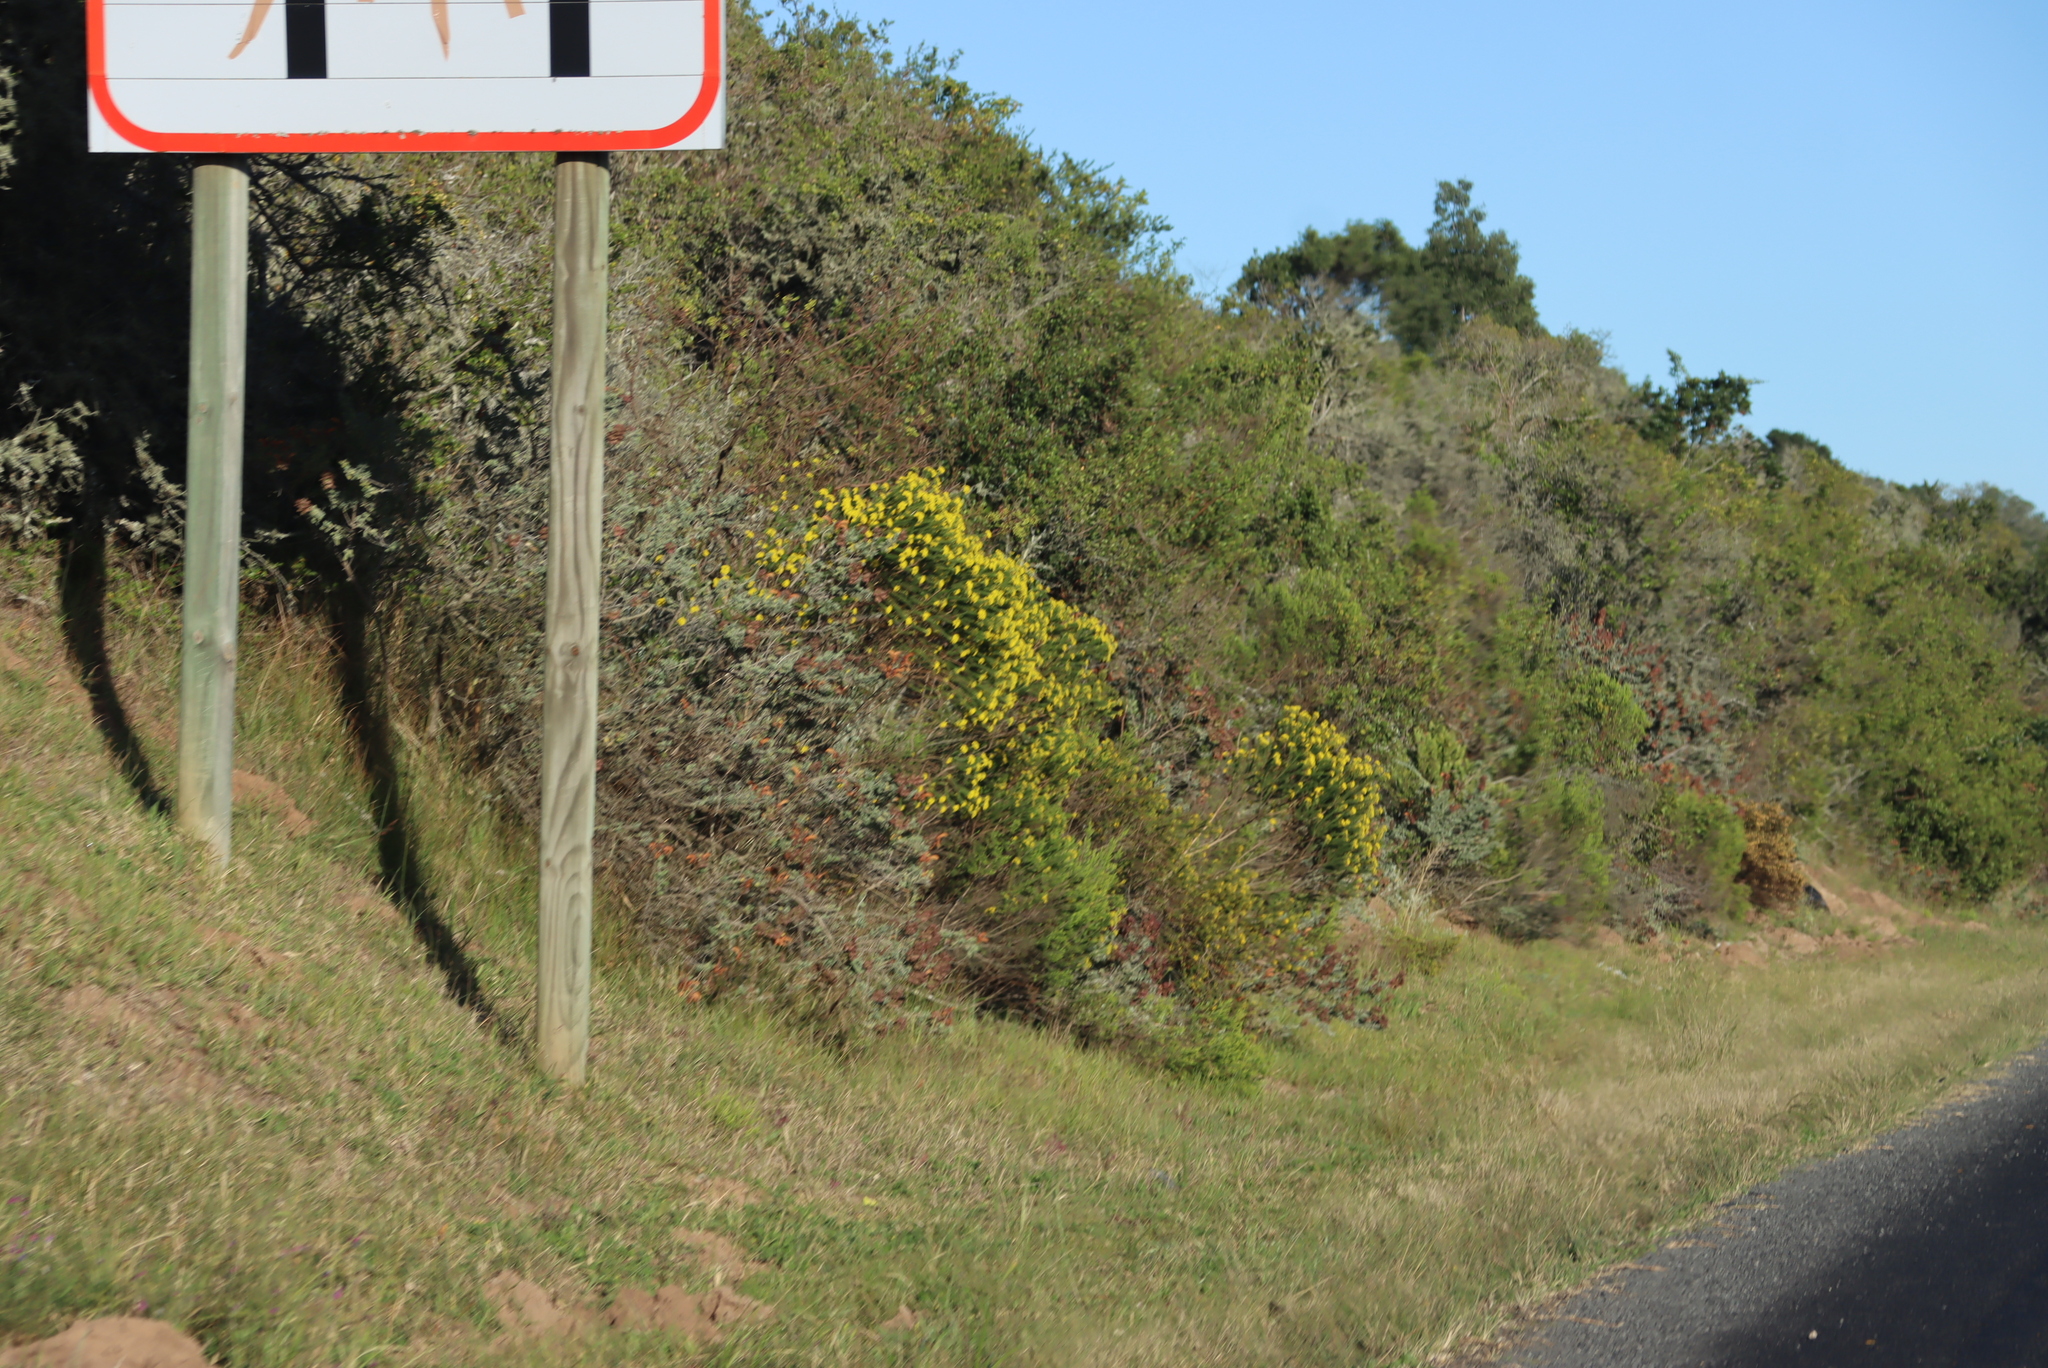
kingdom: Plantae
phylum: Tracheophyta
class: Magnoliopsida
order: Asterales
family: Asteraceae
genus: Euryops
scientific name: Euryops virgineus
